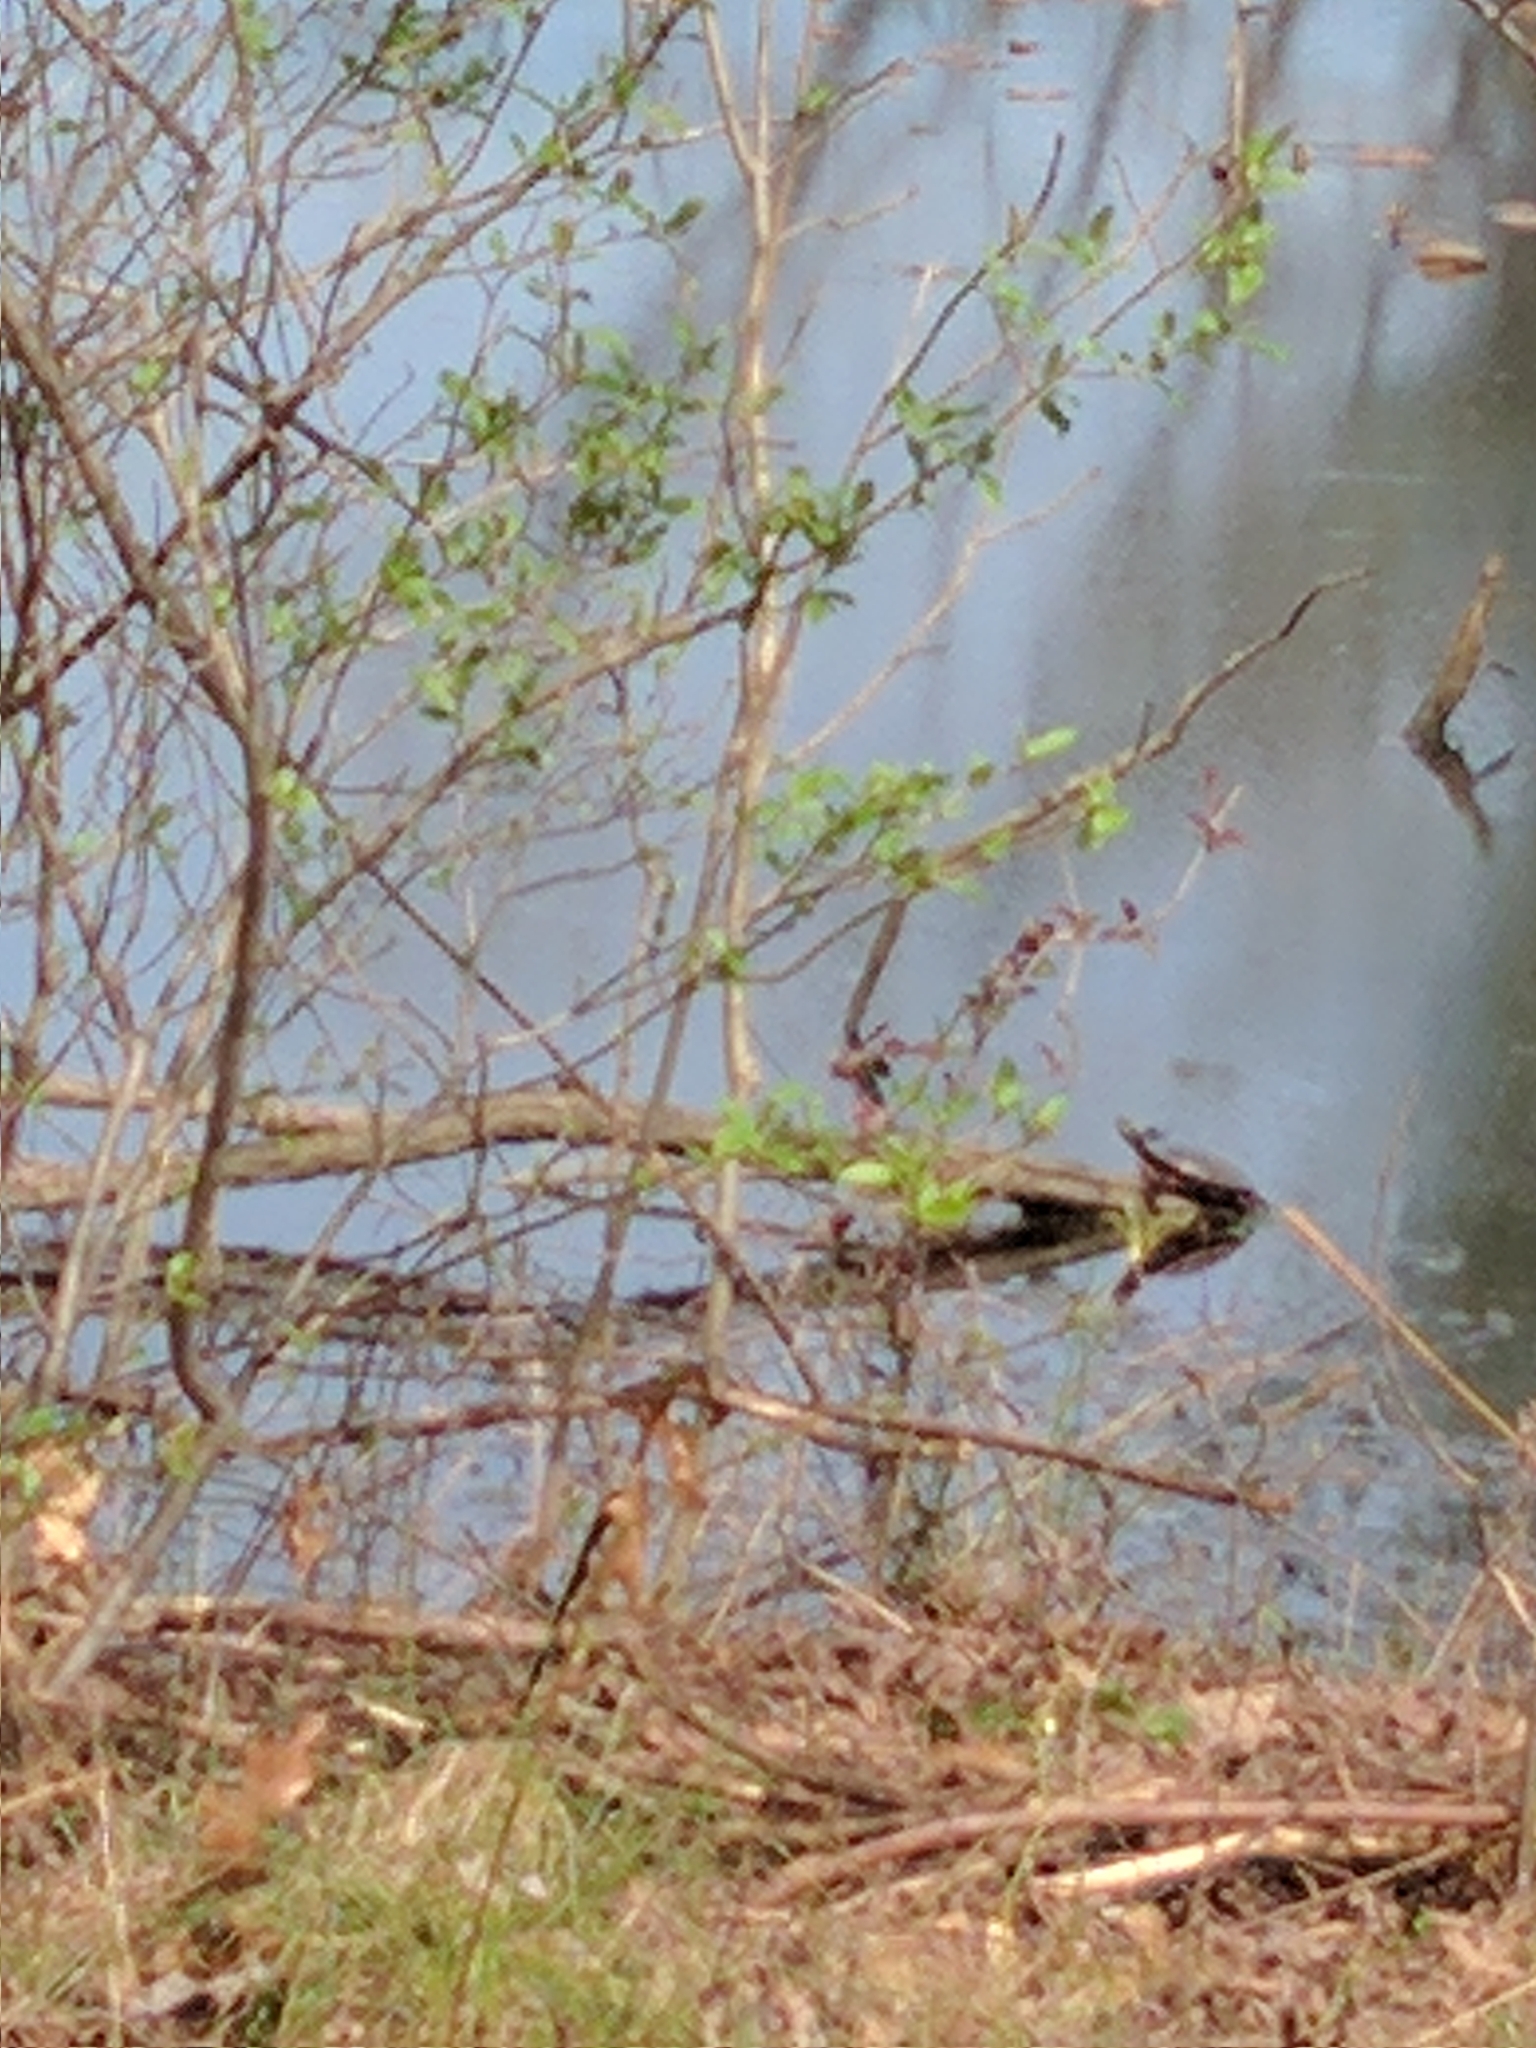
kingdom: Animalia
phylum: Chordata
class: Testudines
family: Emydidae
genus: Chrysemys
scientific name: Chrysemys picta
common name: Painted turtle
